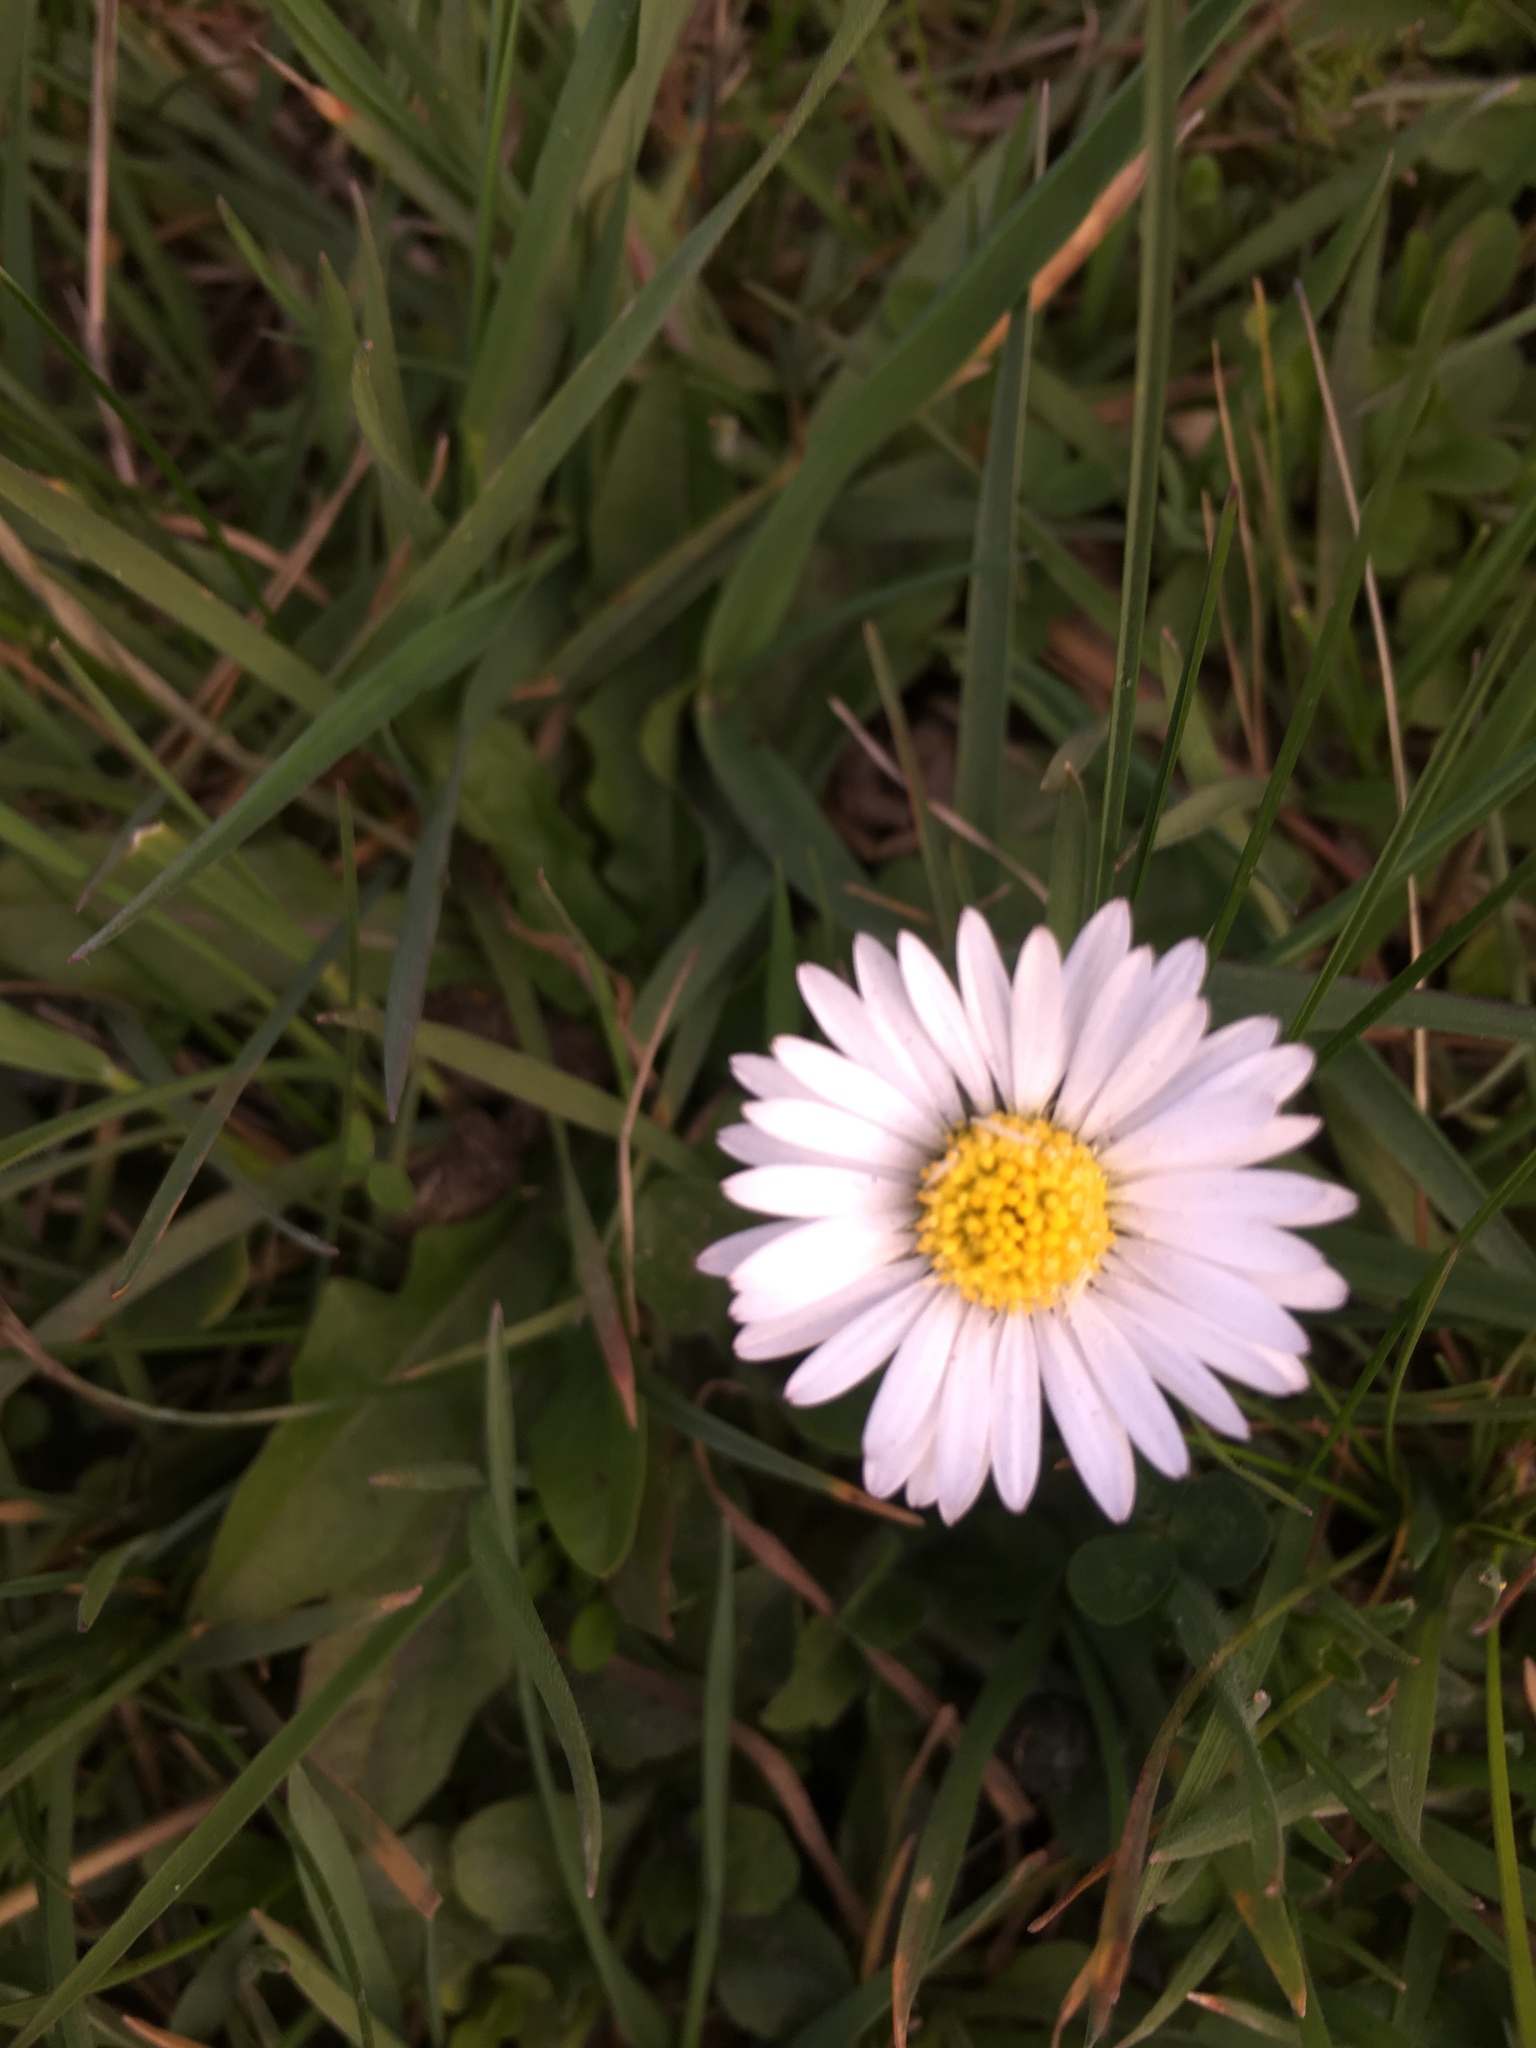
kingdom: Plantae
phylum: Tracheophyta
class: Magnoliopsida
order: Asterales
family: Asteraceae
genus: Bellis
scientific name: Bellis perennis
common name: Lawndaisy
